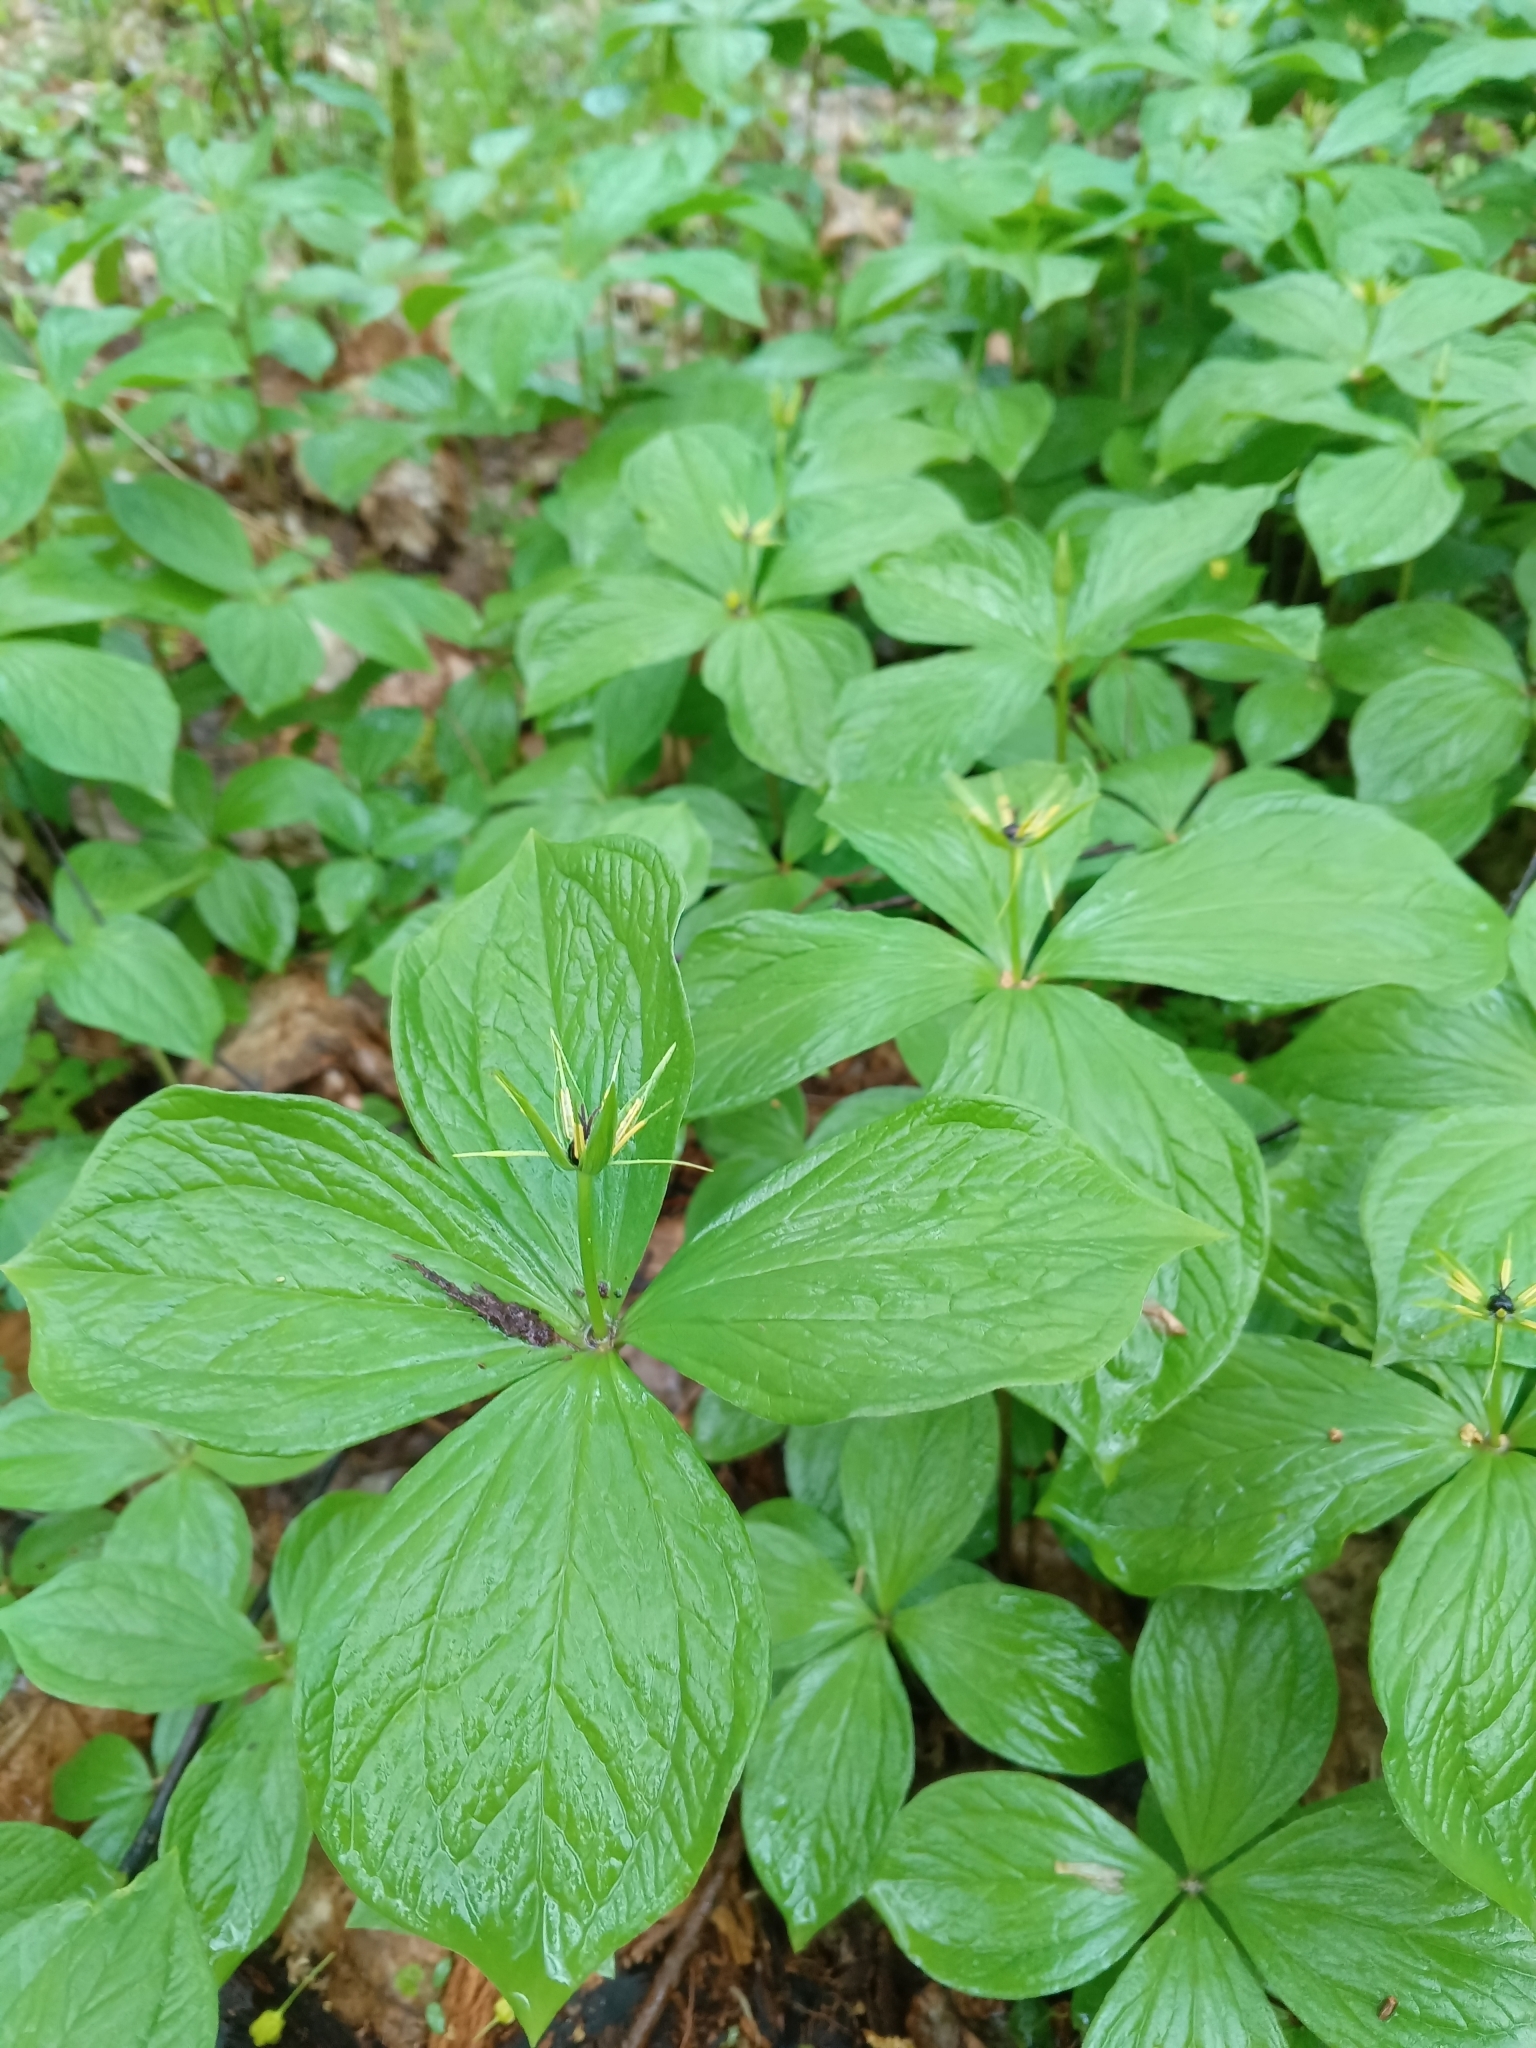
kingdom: Plantae
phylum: Tracheophyta
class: Liliopsida
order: Liliales
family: Melanthiaceae
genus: Paris
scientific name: Paris quadrifolia
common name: Herb-paris
